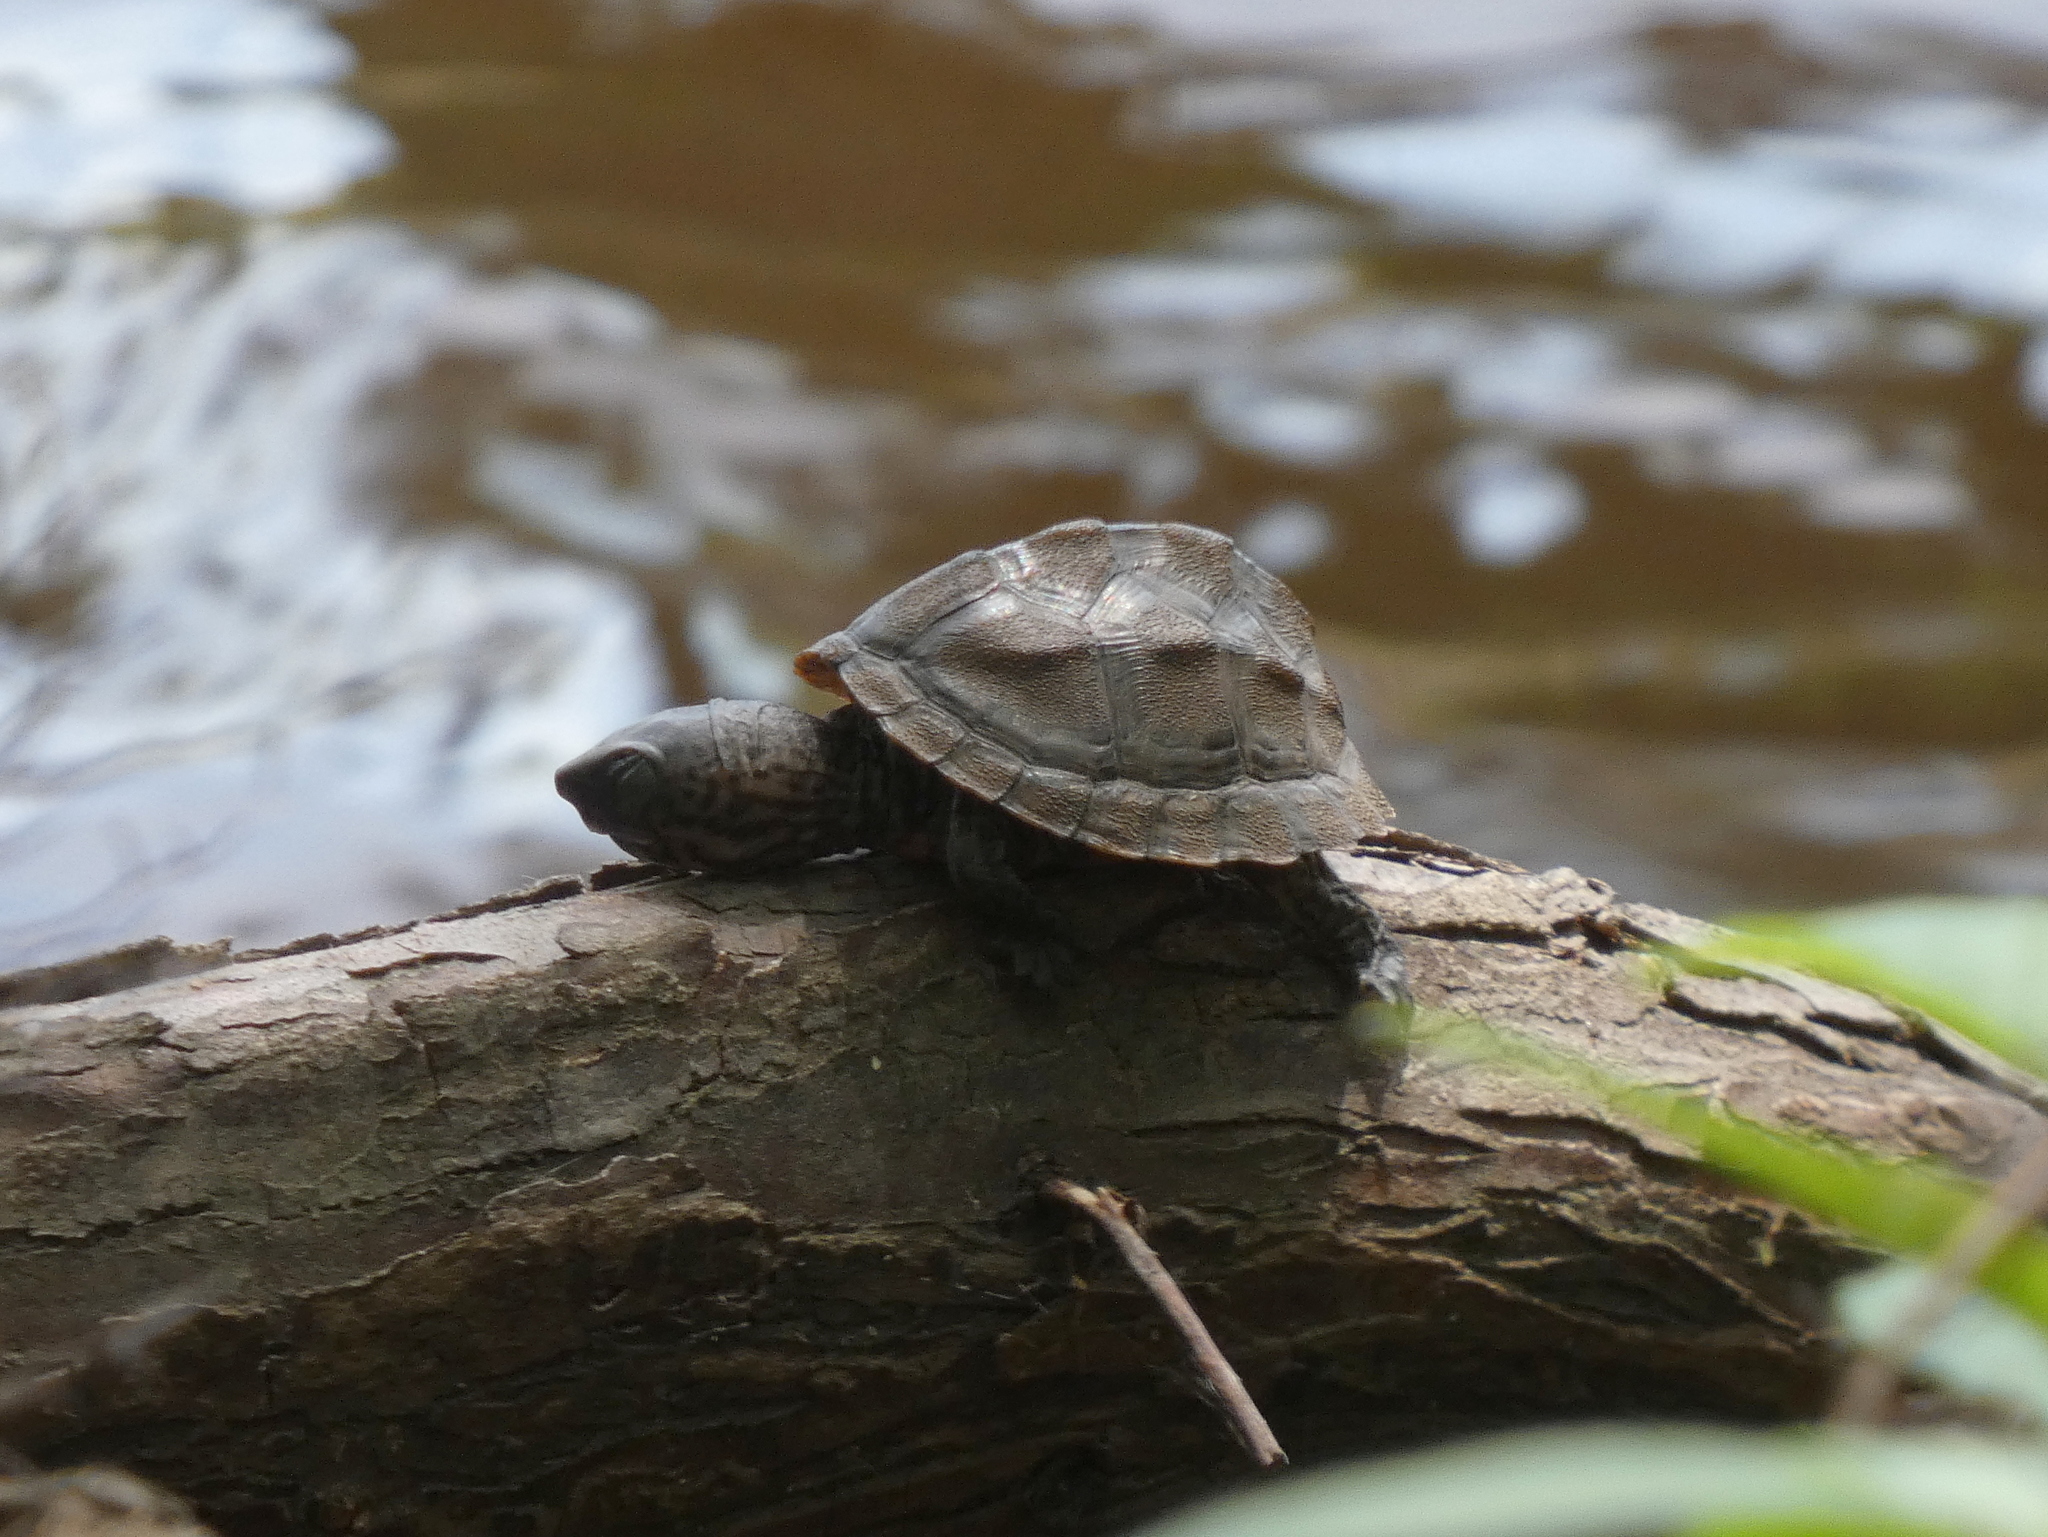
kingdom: Animalia
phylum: Chordata
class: Testudines
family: Kinosternidae
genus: Sternotherus
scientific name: Sternotherus minor
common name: Loggerhead musk turtle
